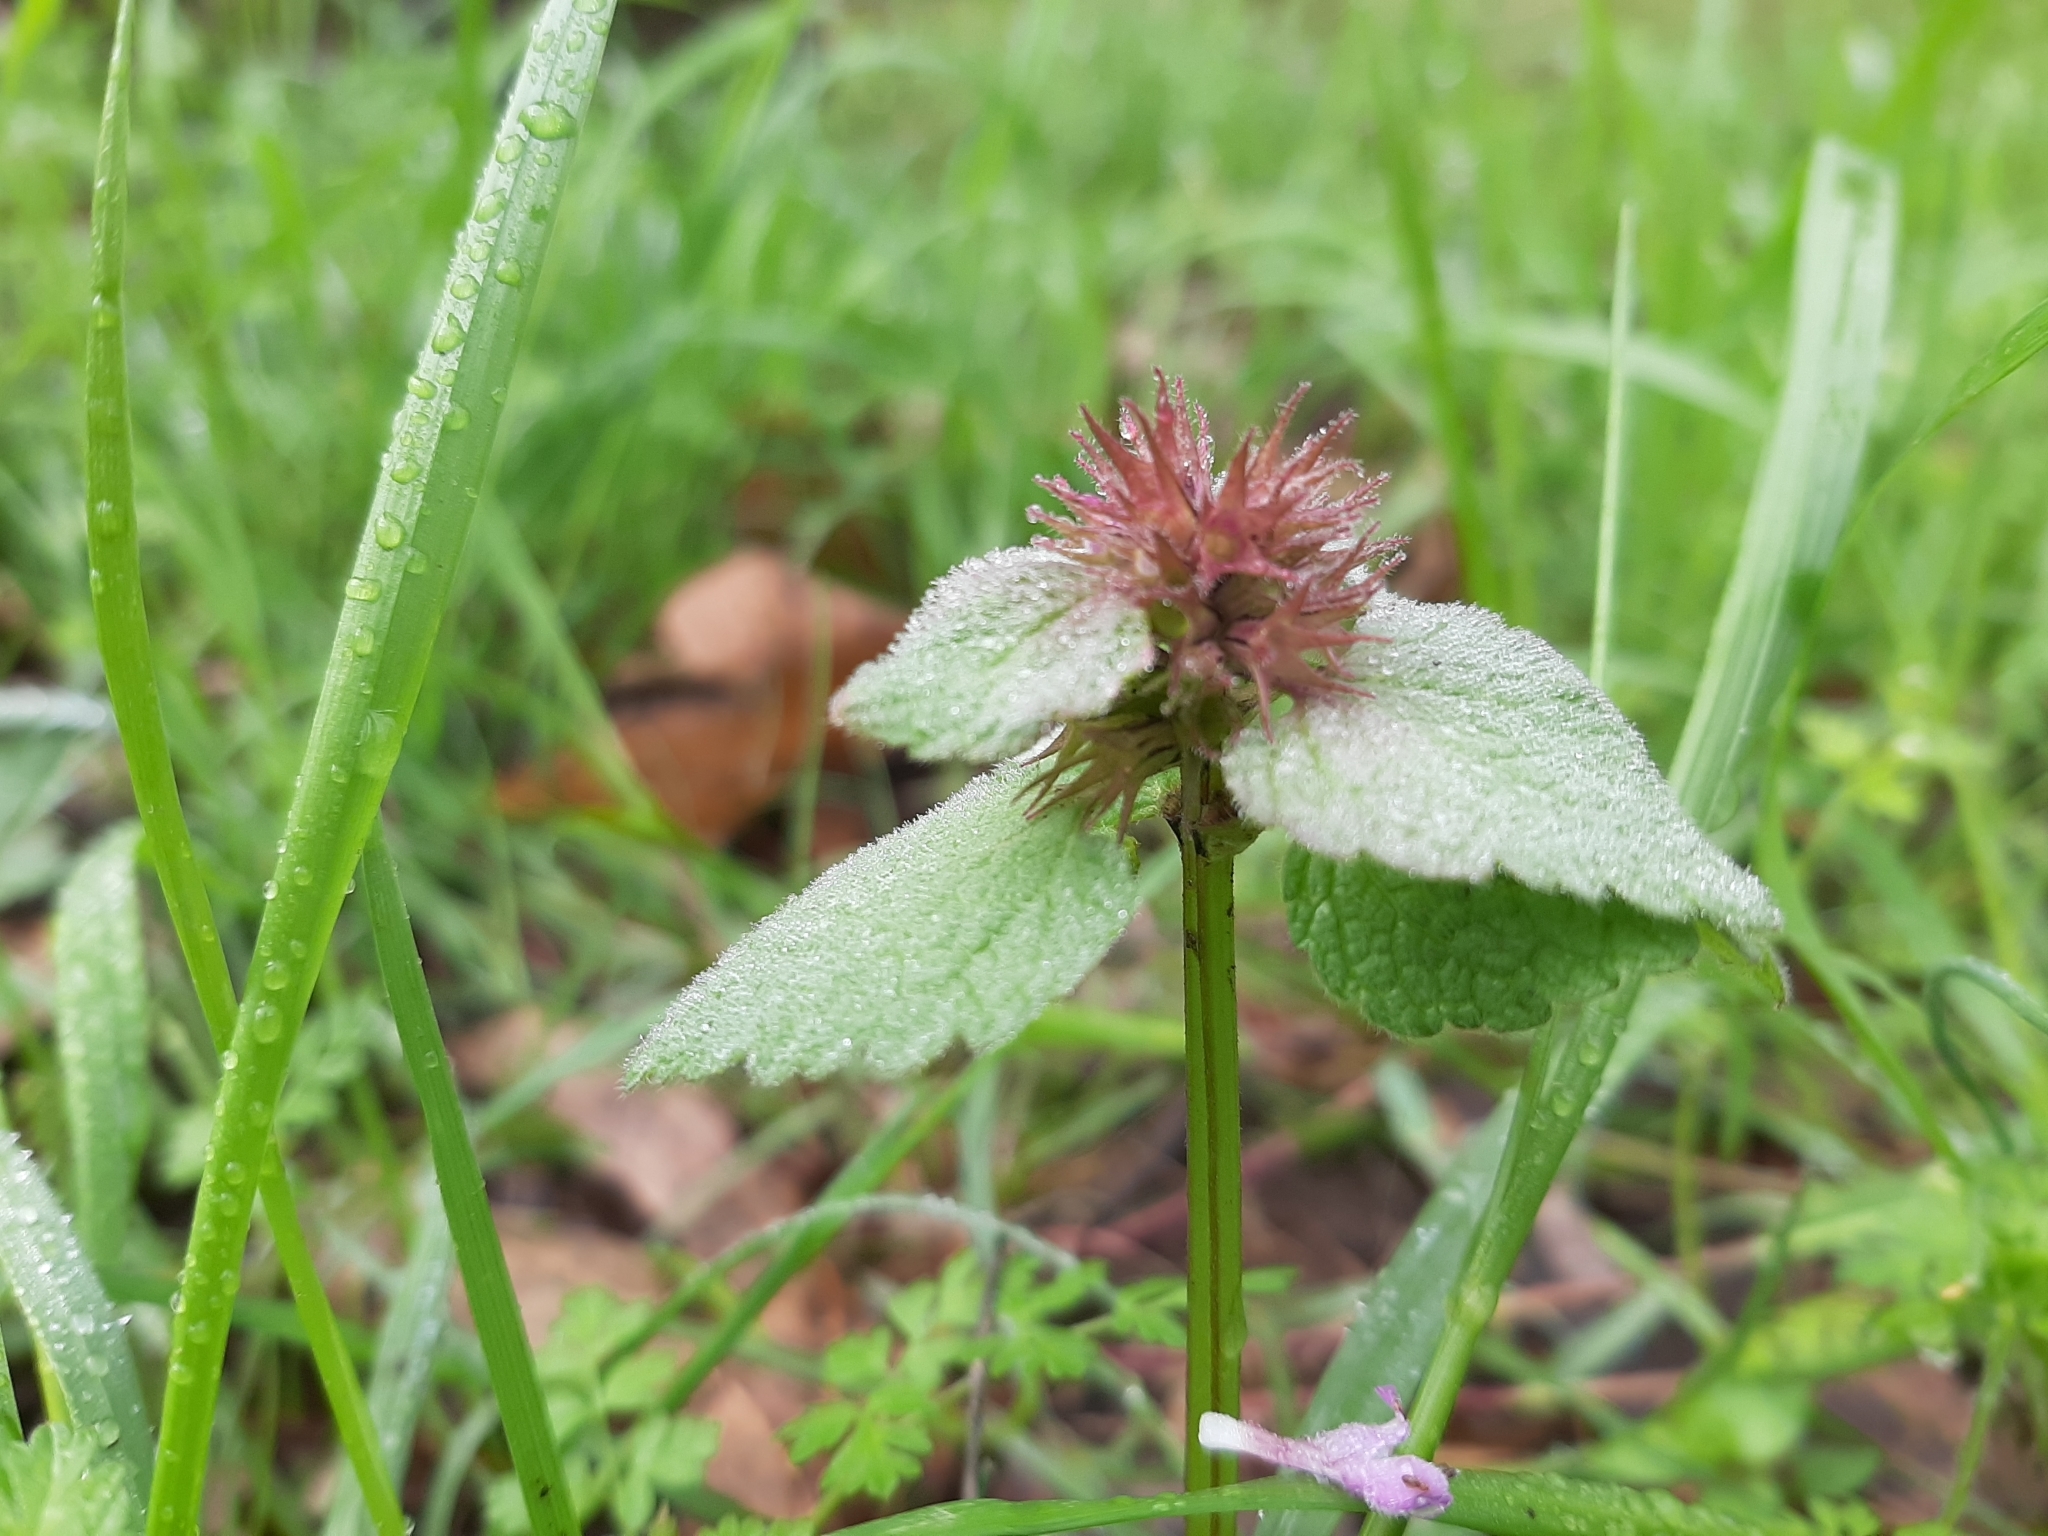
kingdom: Plantae
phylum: Tracheophyta
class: Magnoliopsida
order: Lamiales
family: Lamiaceae
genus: Lamium
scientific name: Lamium purpureum
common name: Red dead-nettle
